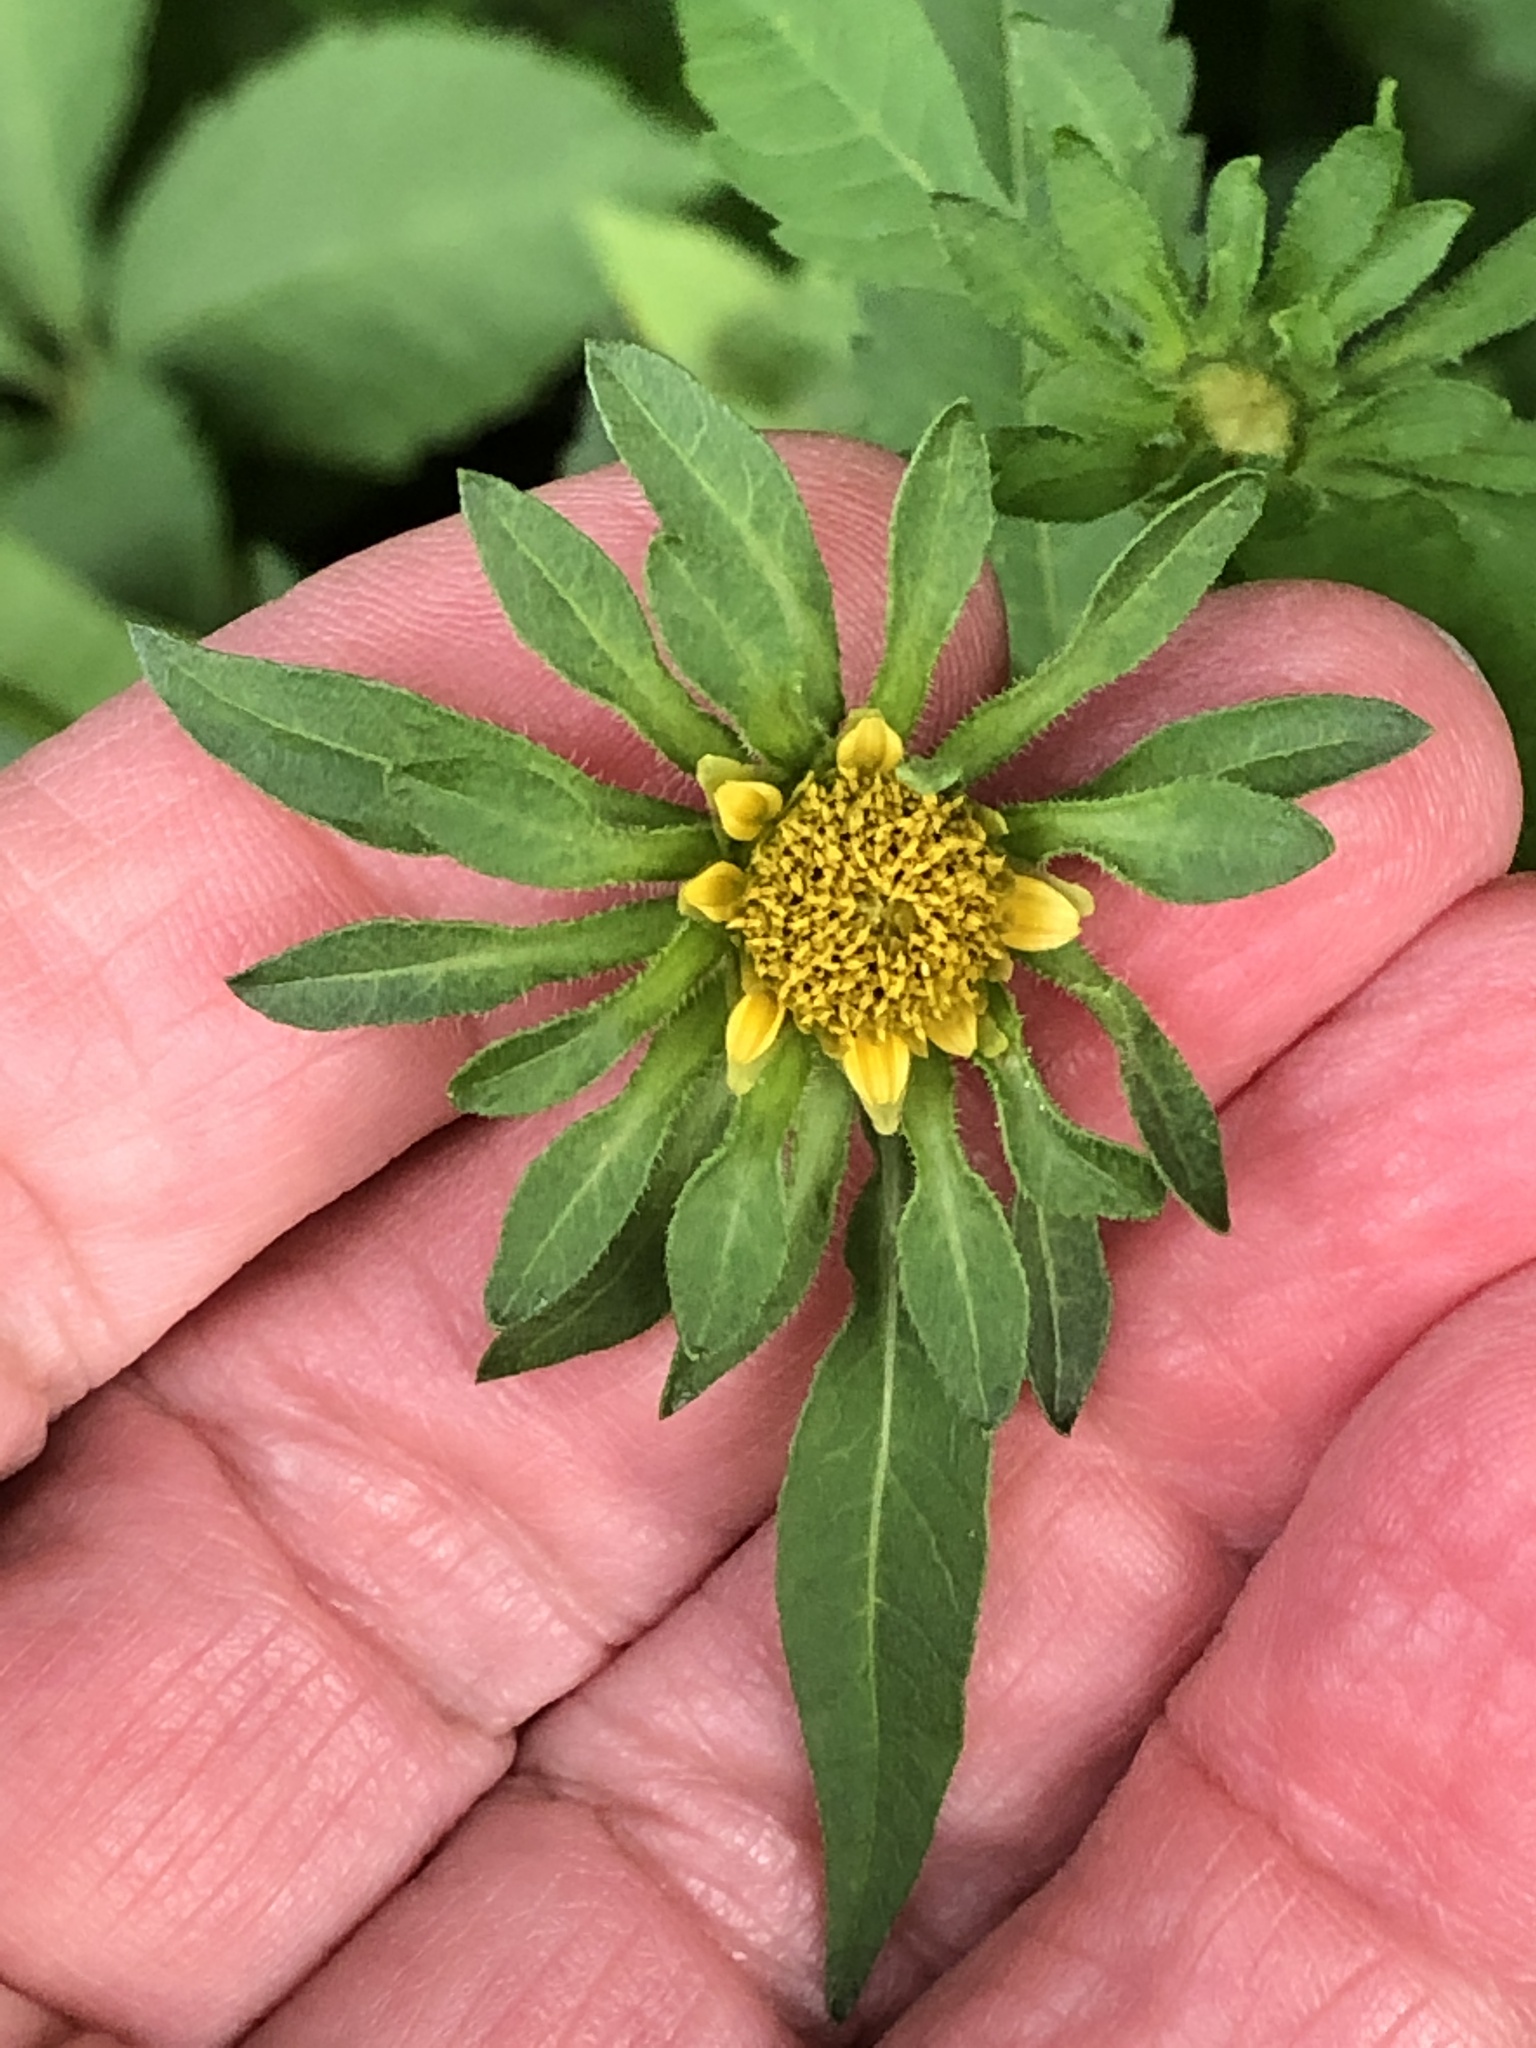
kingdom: Plantae
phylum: Tracheophyta
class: Magnoliopsida
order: Asterales
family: Asteraceae
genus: Bidens
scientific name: Bidens vulgata
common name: Tall beggarticks
